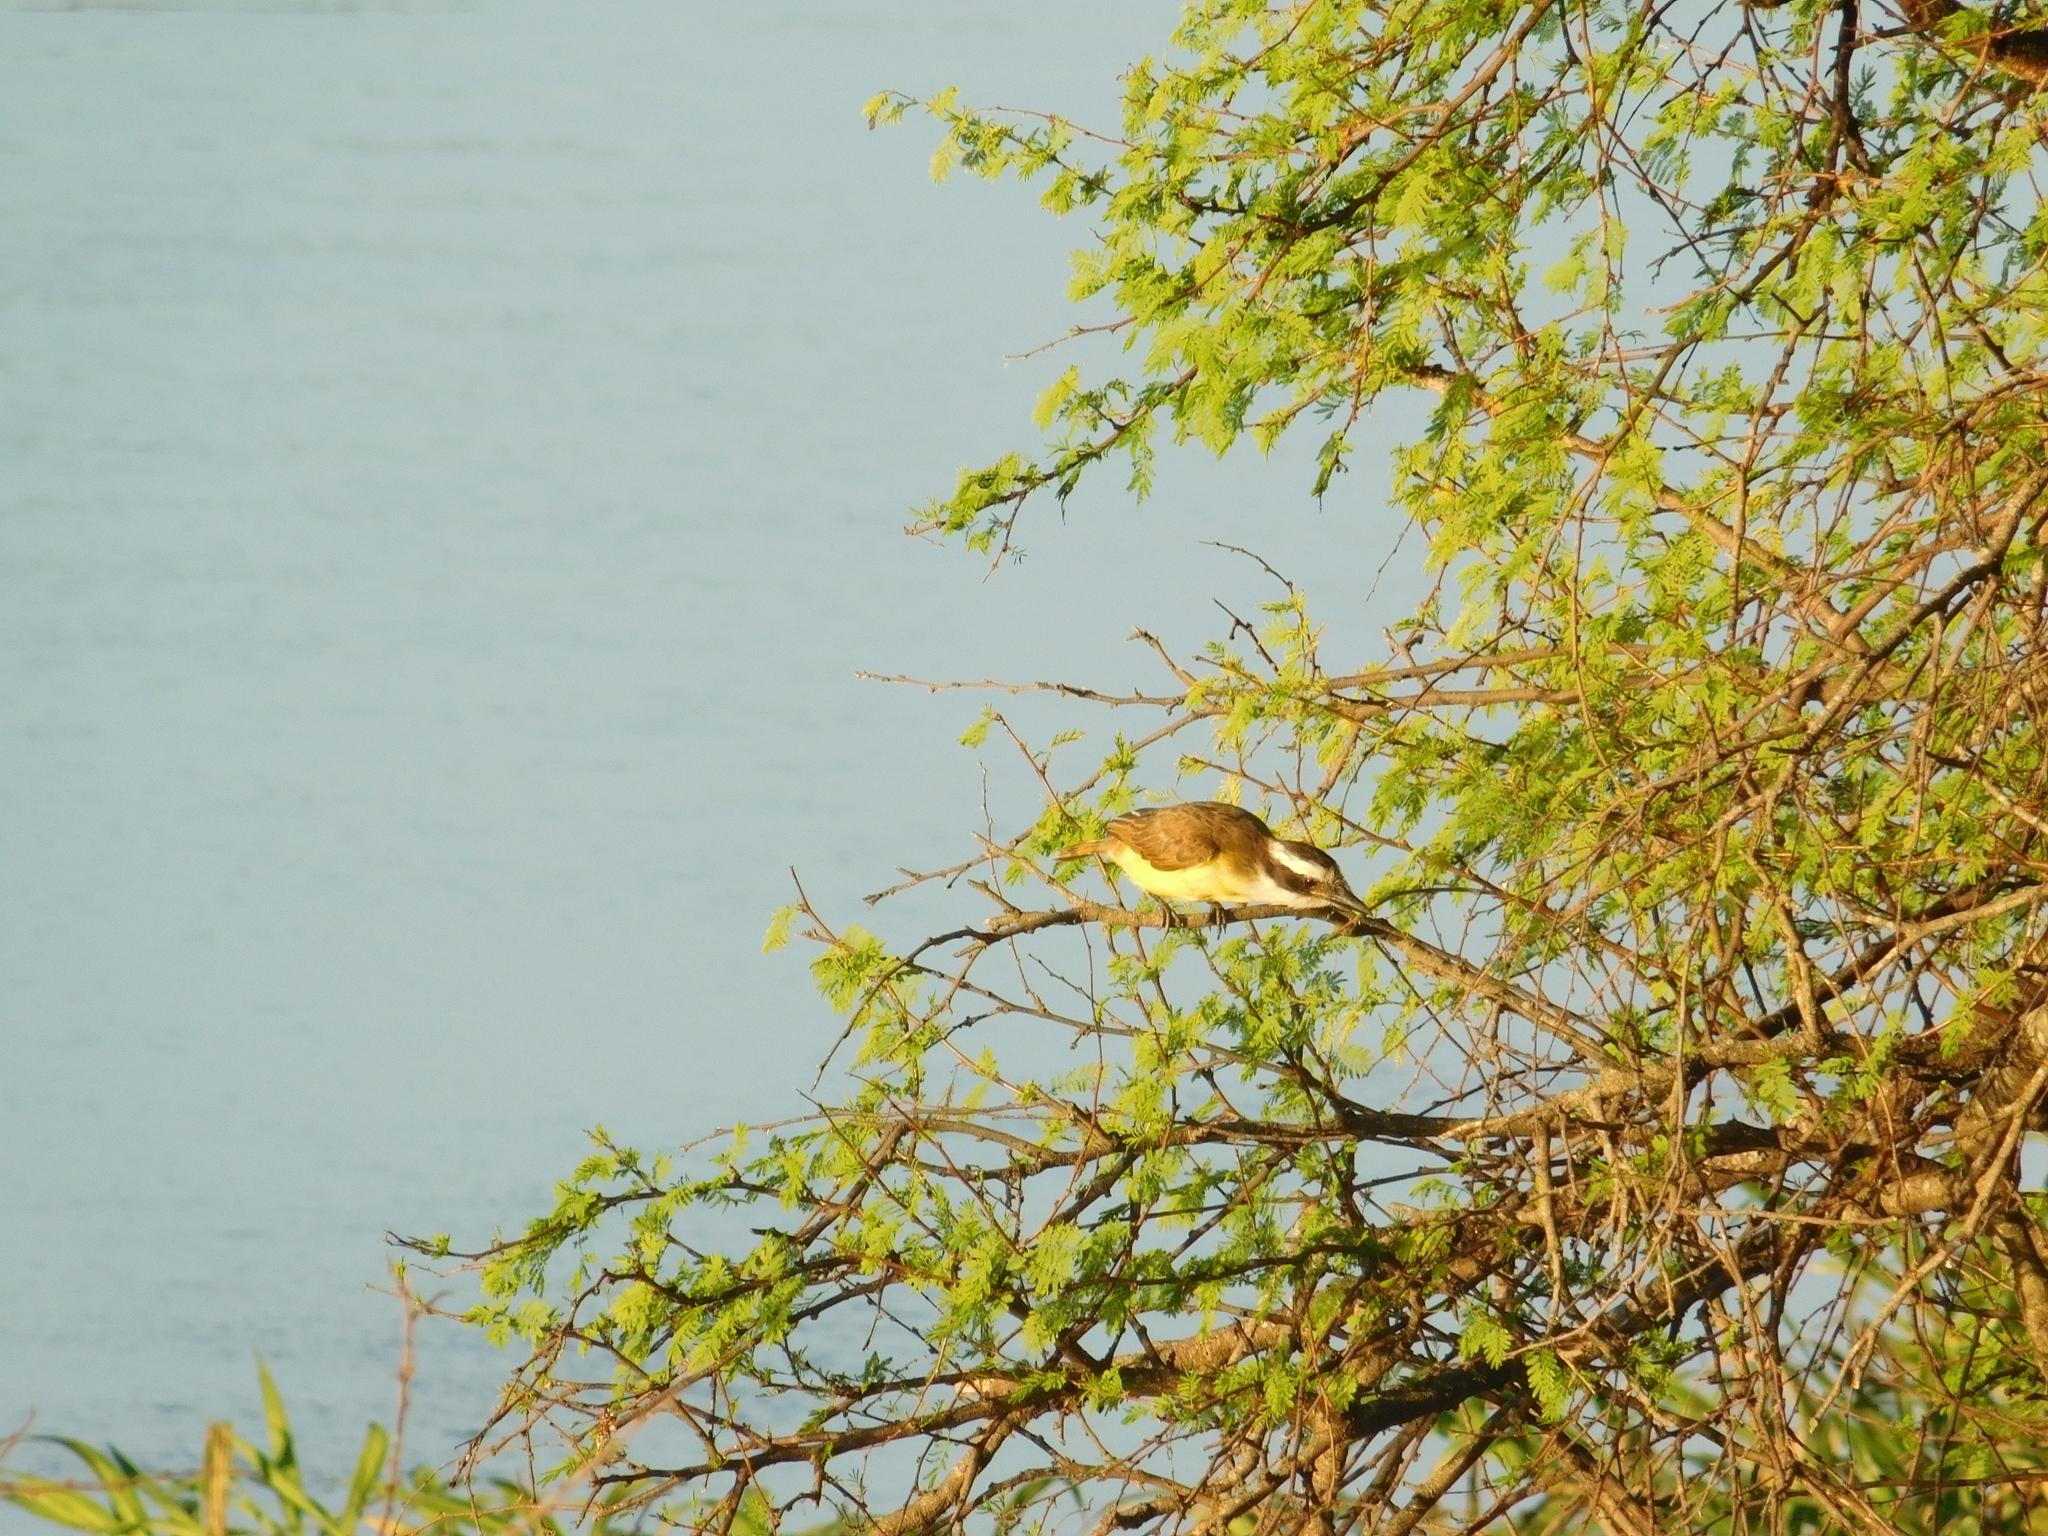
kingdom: Animalia
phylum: Chordata
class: Aves
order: Passeriformes
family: Tyrannidae
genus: Pitangus
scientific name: Pitangus sulphuratus
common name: Great kiskadee
